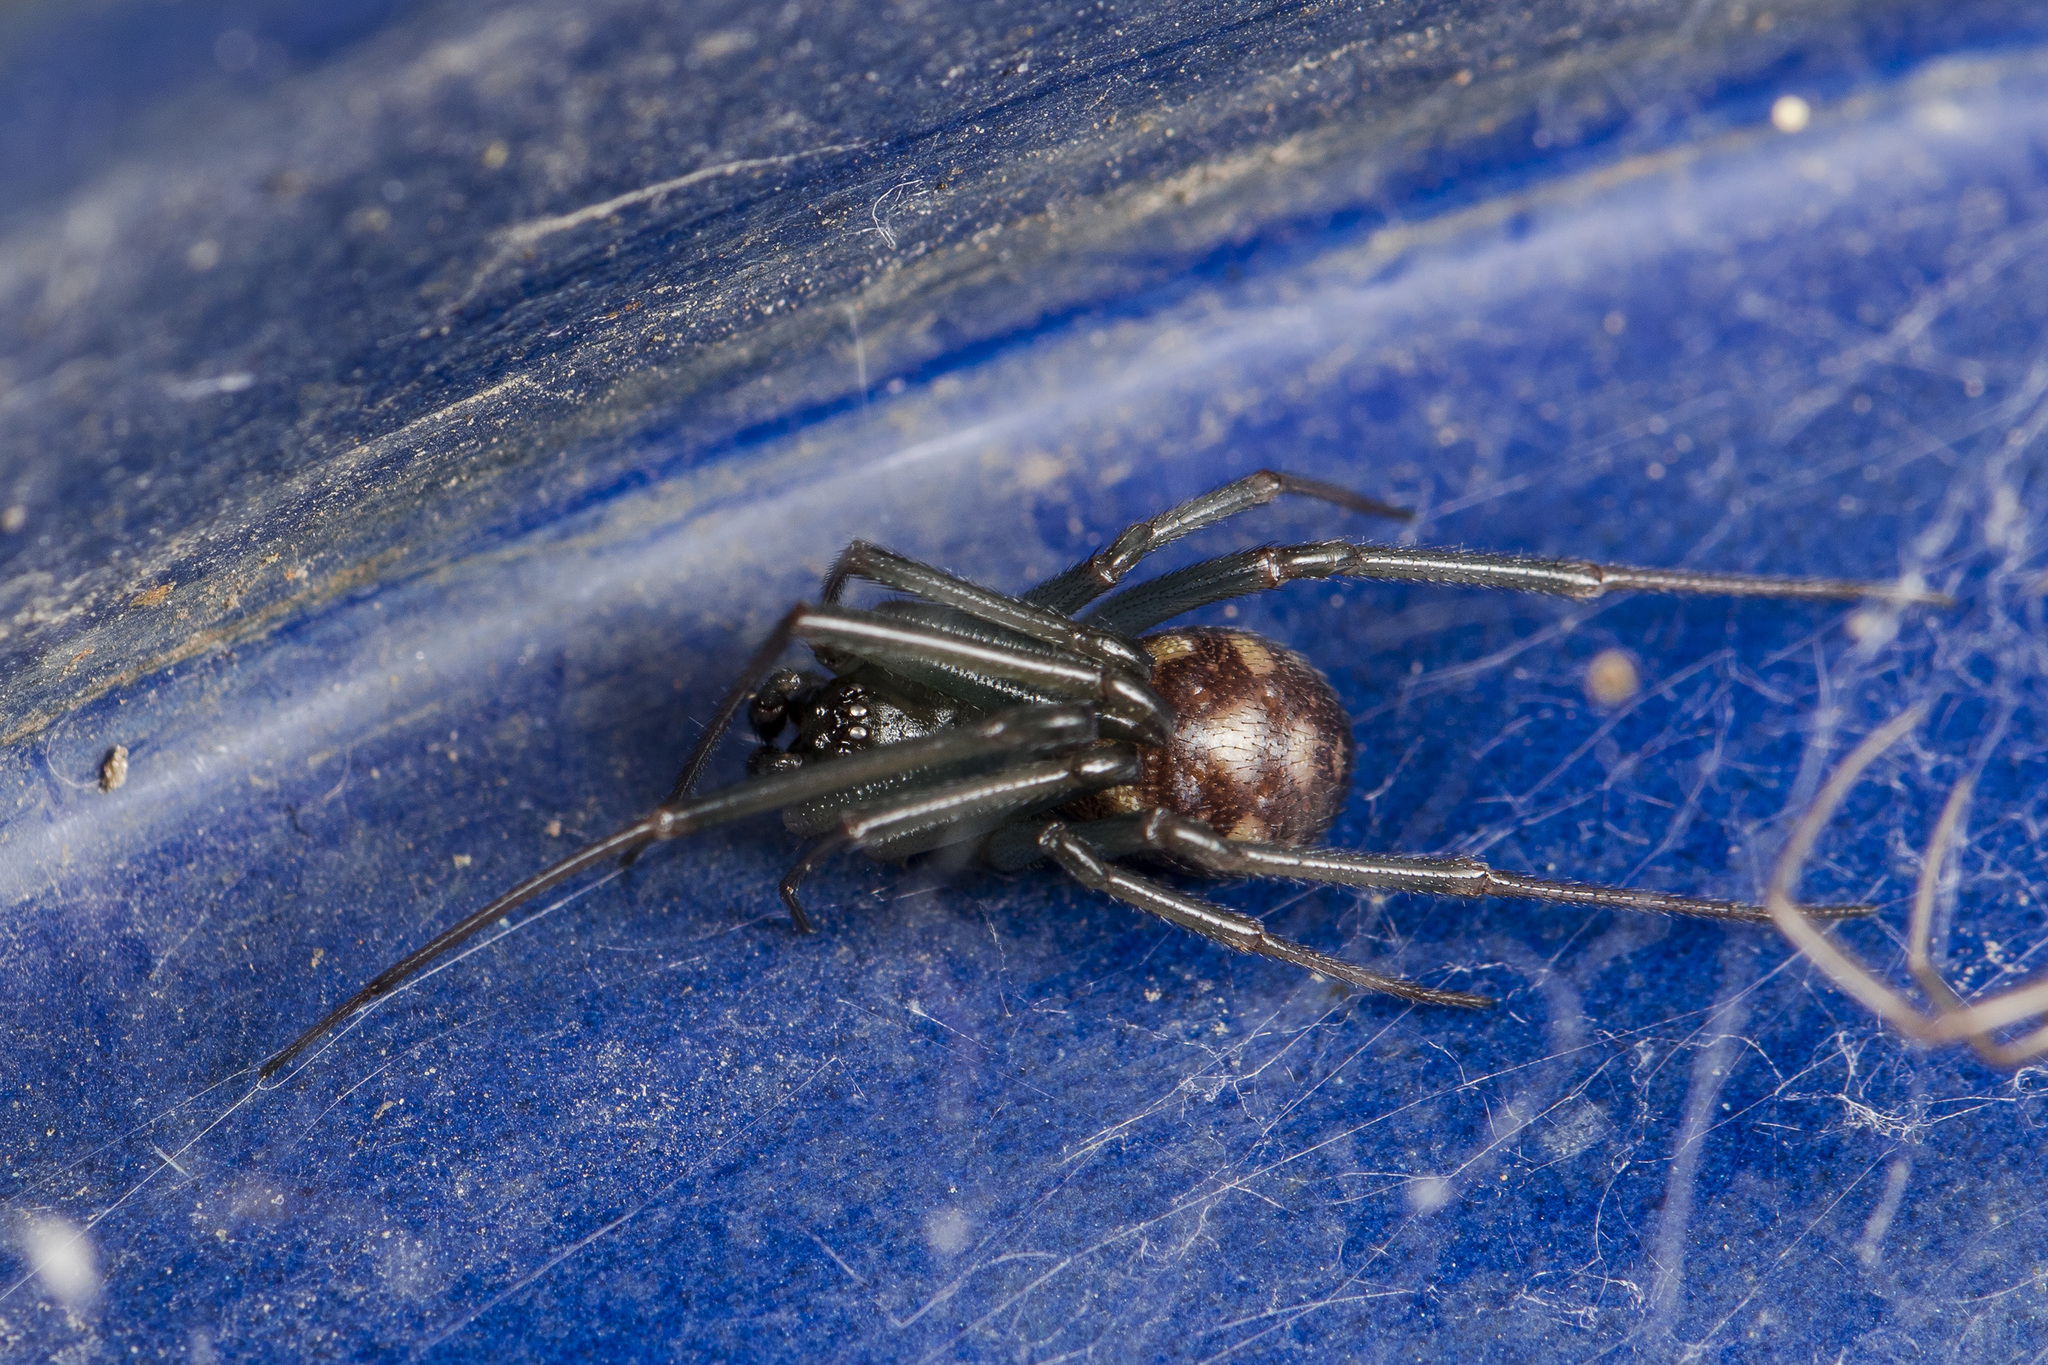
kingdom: Animalia
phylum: Arthropoda
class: Arachnida
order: Araneae
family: Theridiidae
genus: Steatoda
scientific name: Steatoda grossa
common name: False black widow
